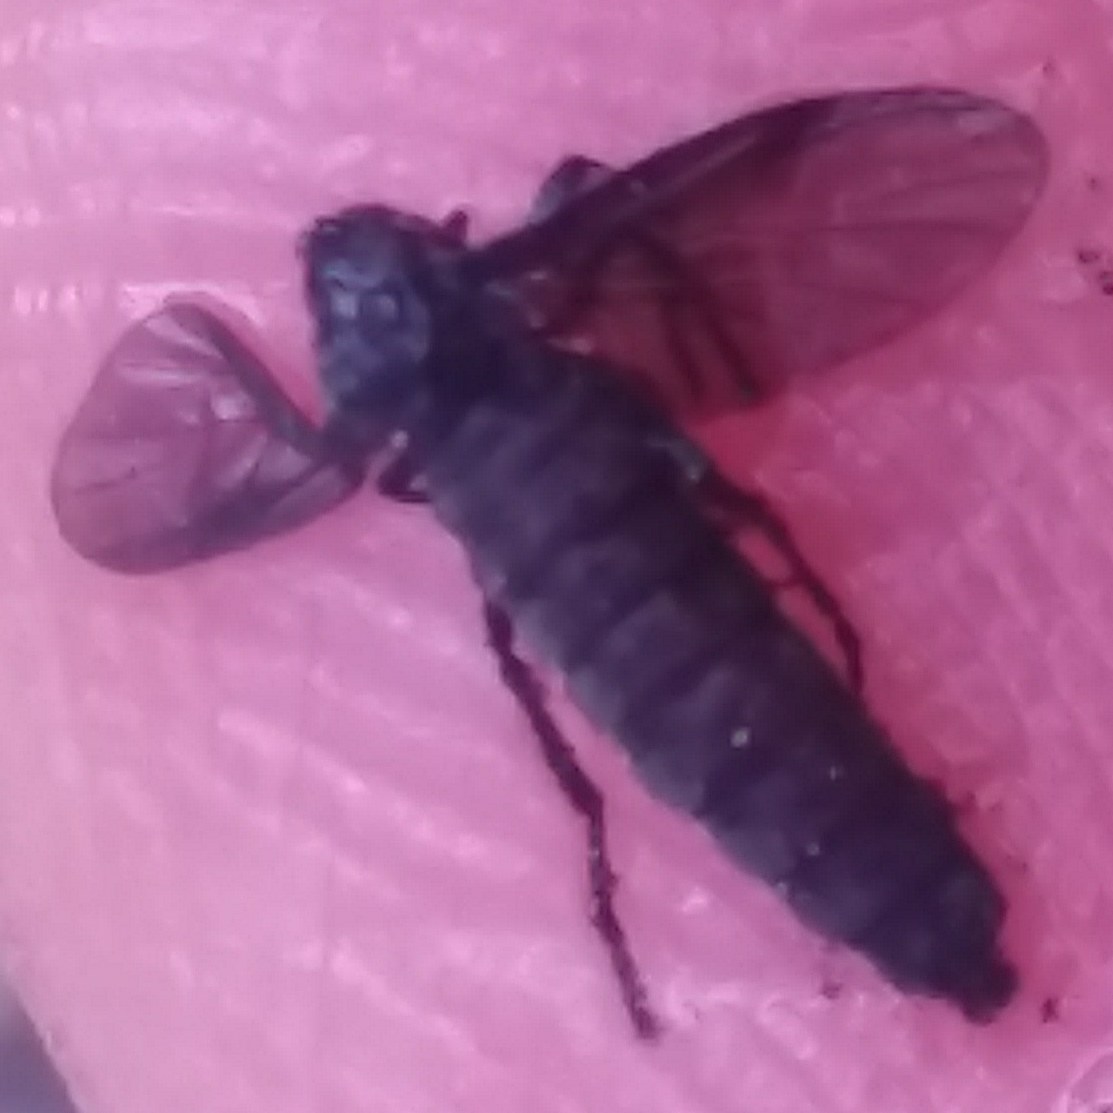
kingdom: Animalia
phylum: Arthropoda
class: Insecta
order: Diptera
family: Bibionidae
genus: Dilophus
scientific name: Dilophus orbatus
